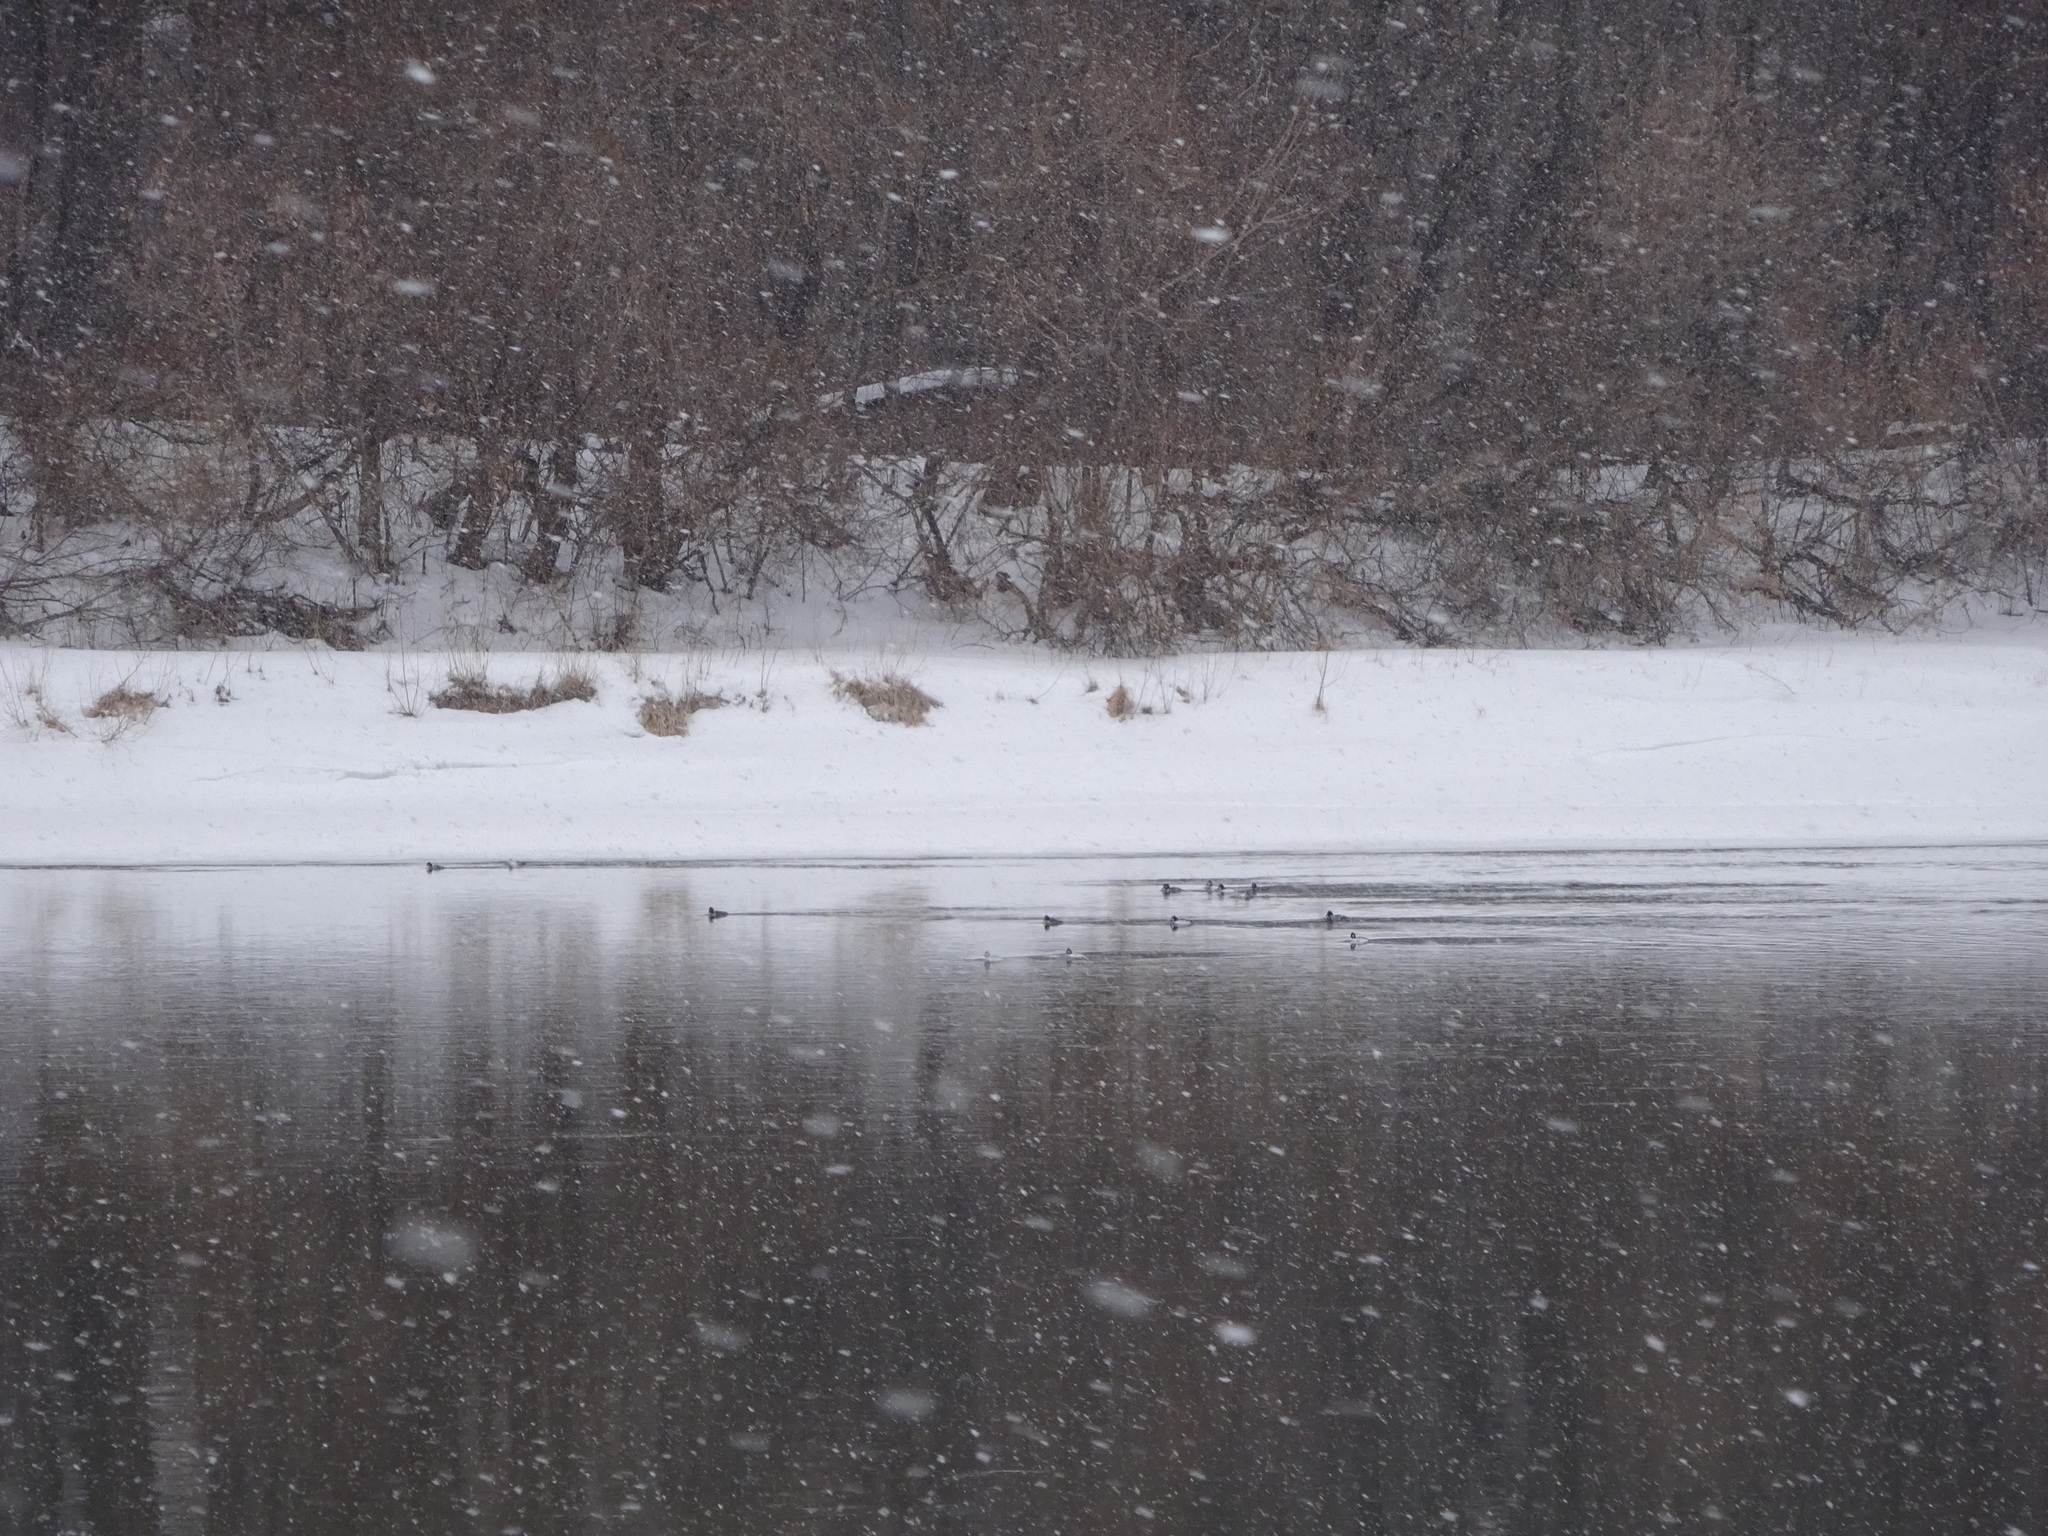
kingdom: Animalia
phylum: Chordata
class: Aves
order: Anseriformes
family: Anatidae
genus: Bucephala
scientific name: Bucephala clangula
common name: Common goldeneye
